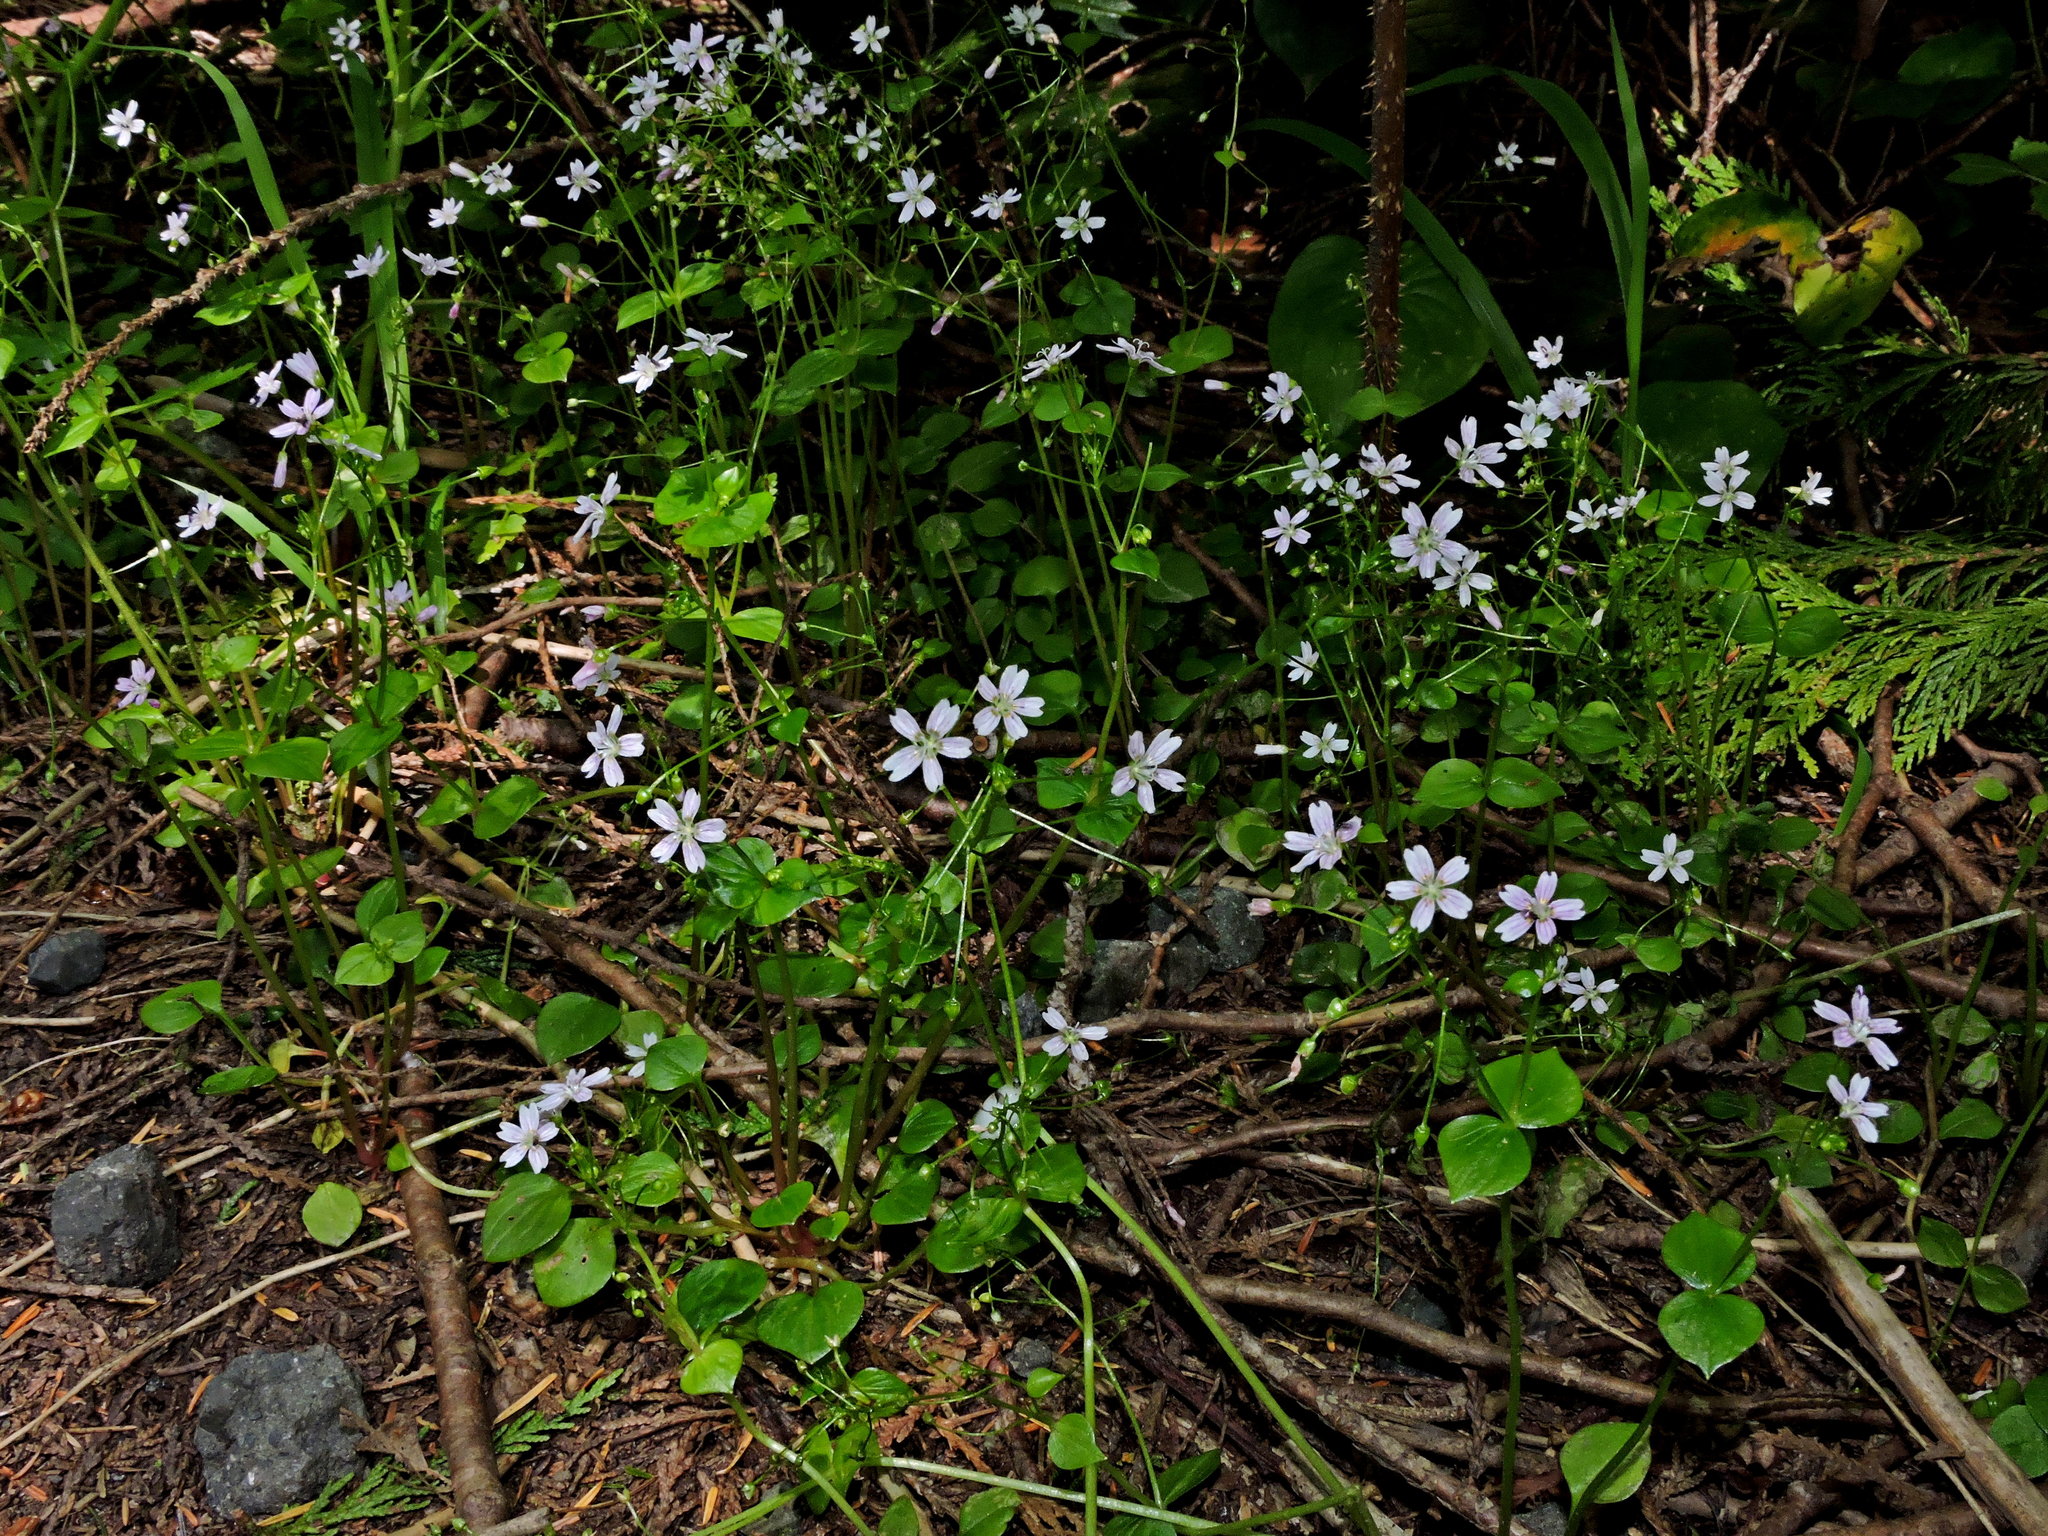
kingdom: Plantae
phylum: Tracheophyta
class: Magnoliopsida
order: Caryophyllales
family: Montiaceae
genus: Claytonia
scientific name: Claytonia sibirica
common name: Pink purslane
